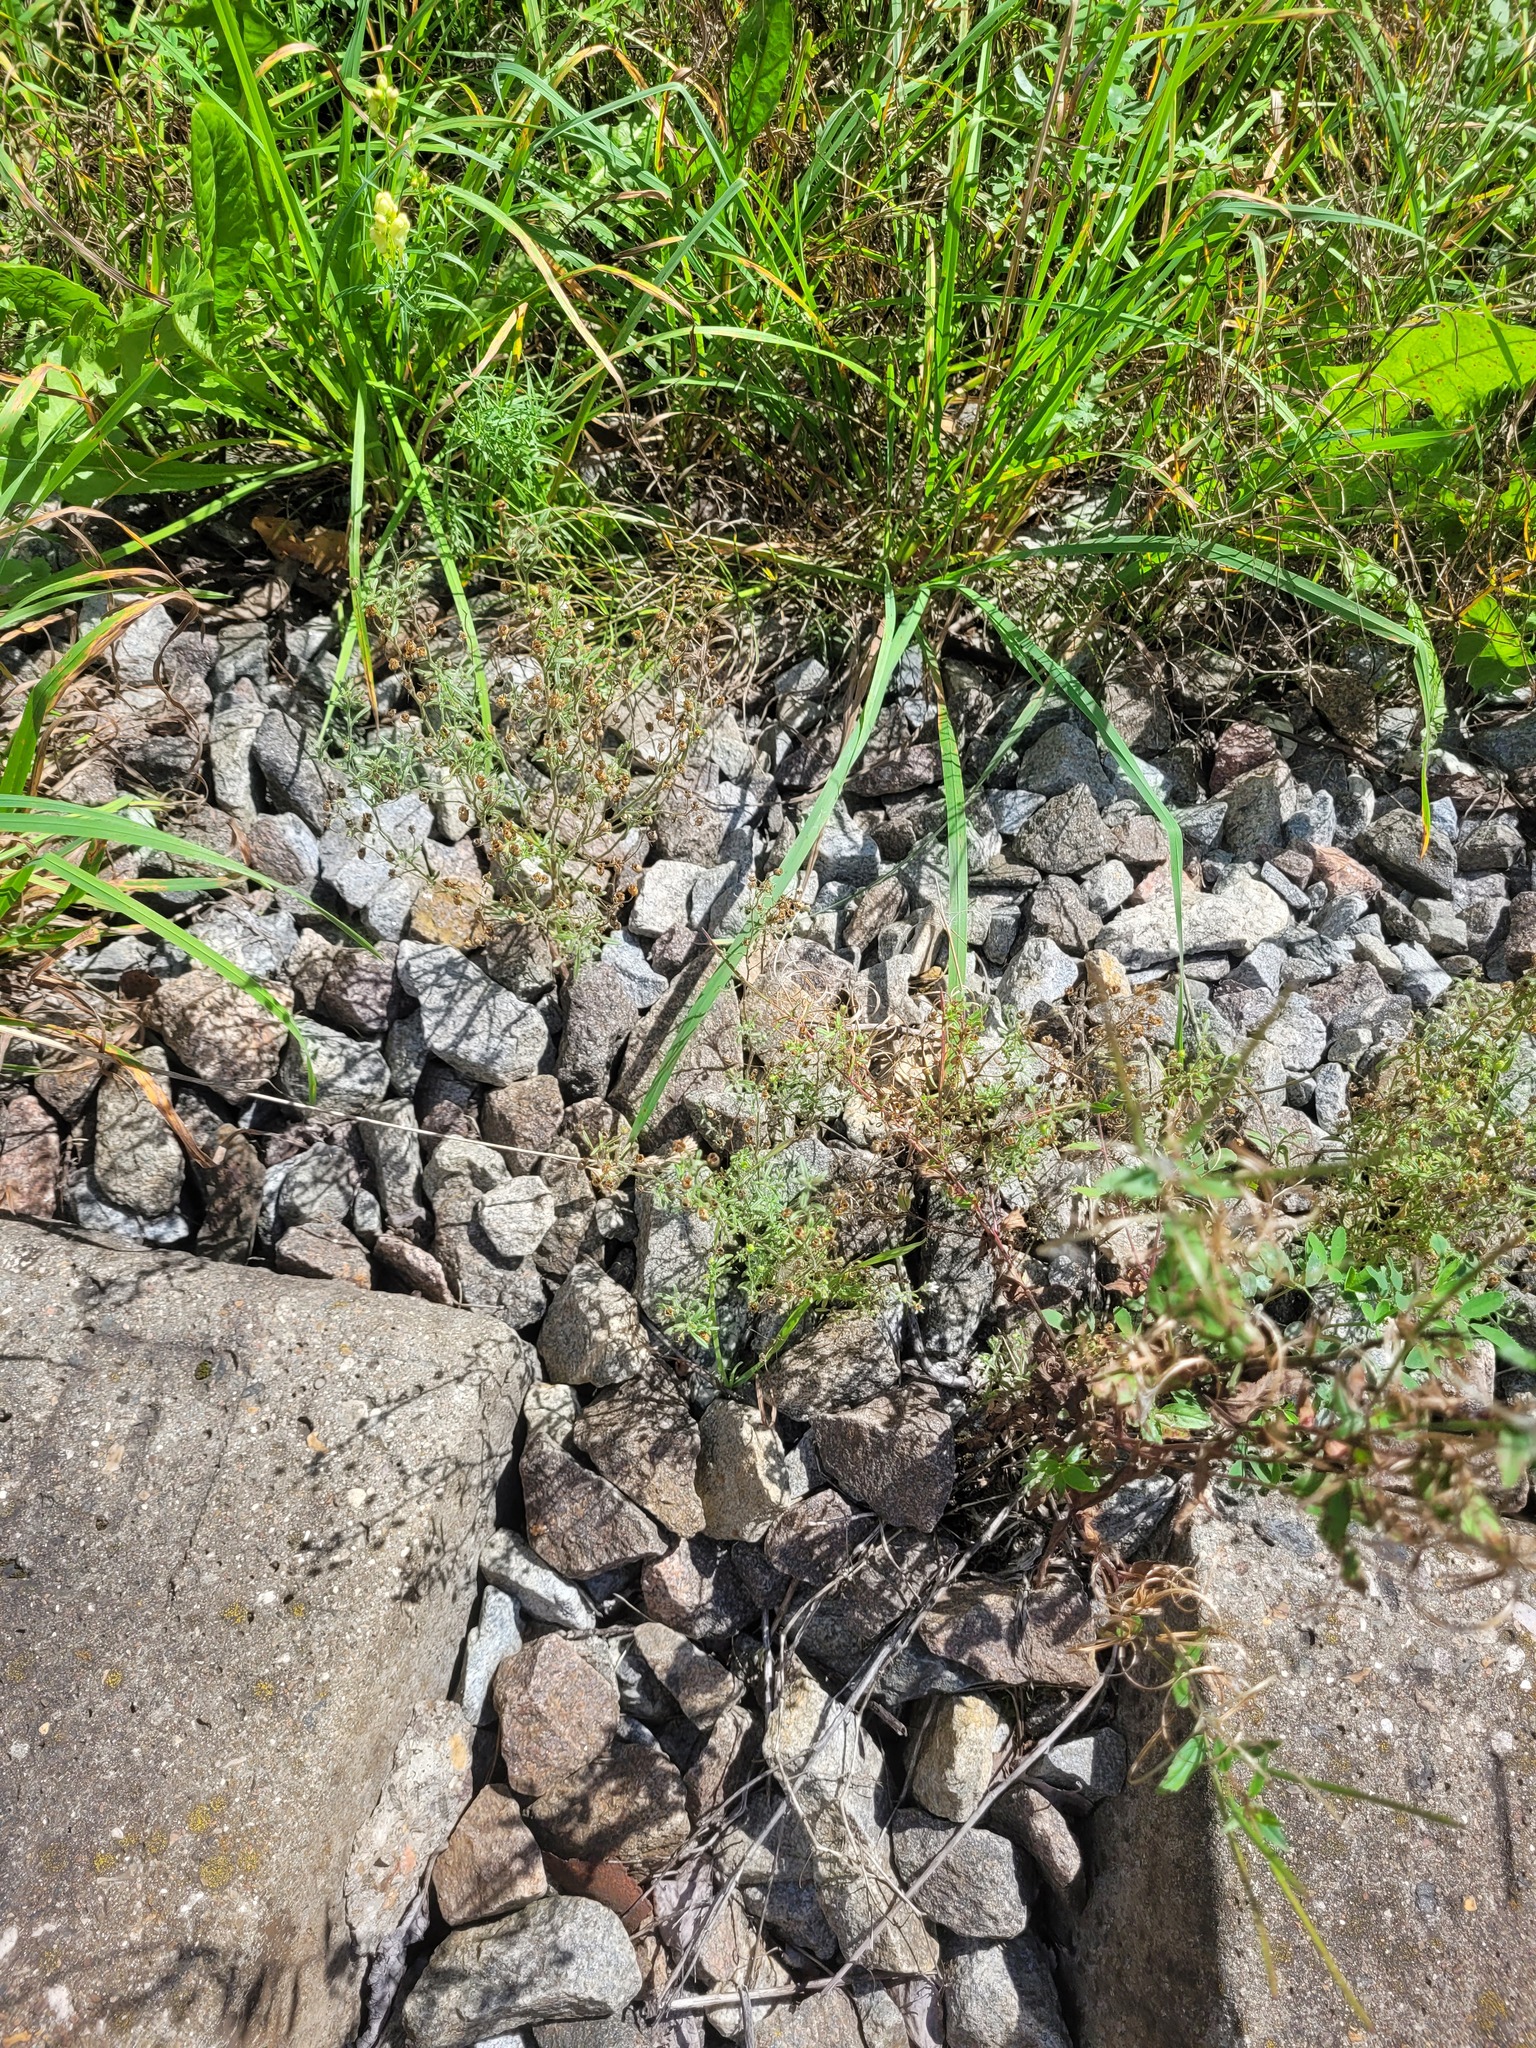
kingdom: Plantae
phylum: Tracheophyta
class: Magnoliopsida
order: Lamiales
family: Plantaginaceae
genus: Chaenorhinum
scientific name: Chaenorhinum minus
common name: Dwarf snapdragon
